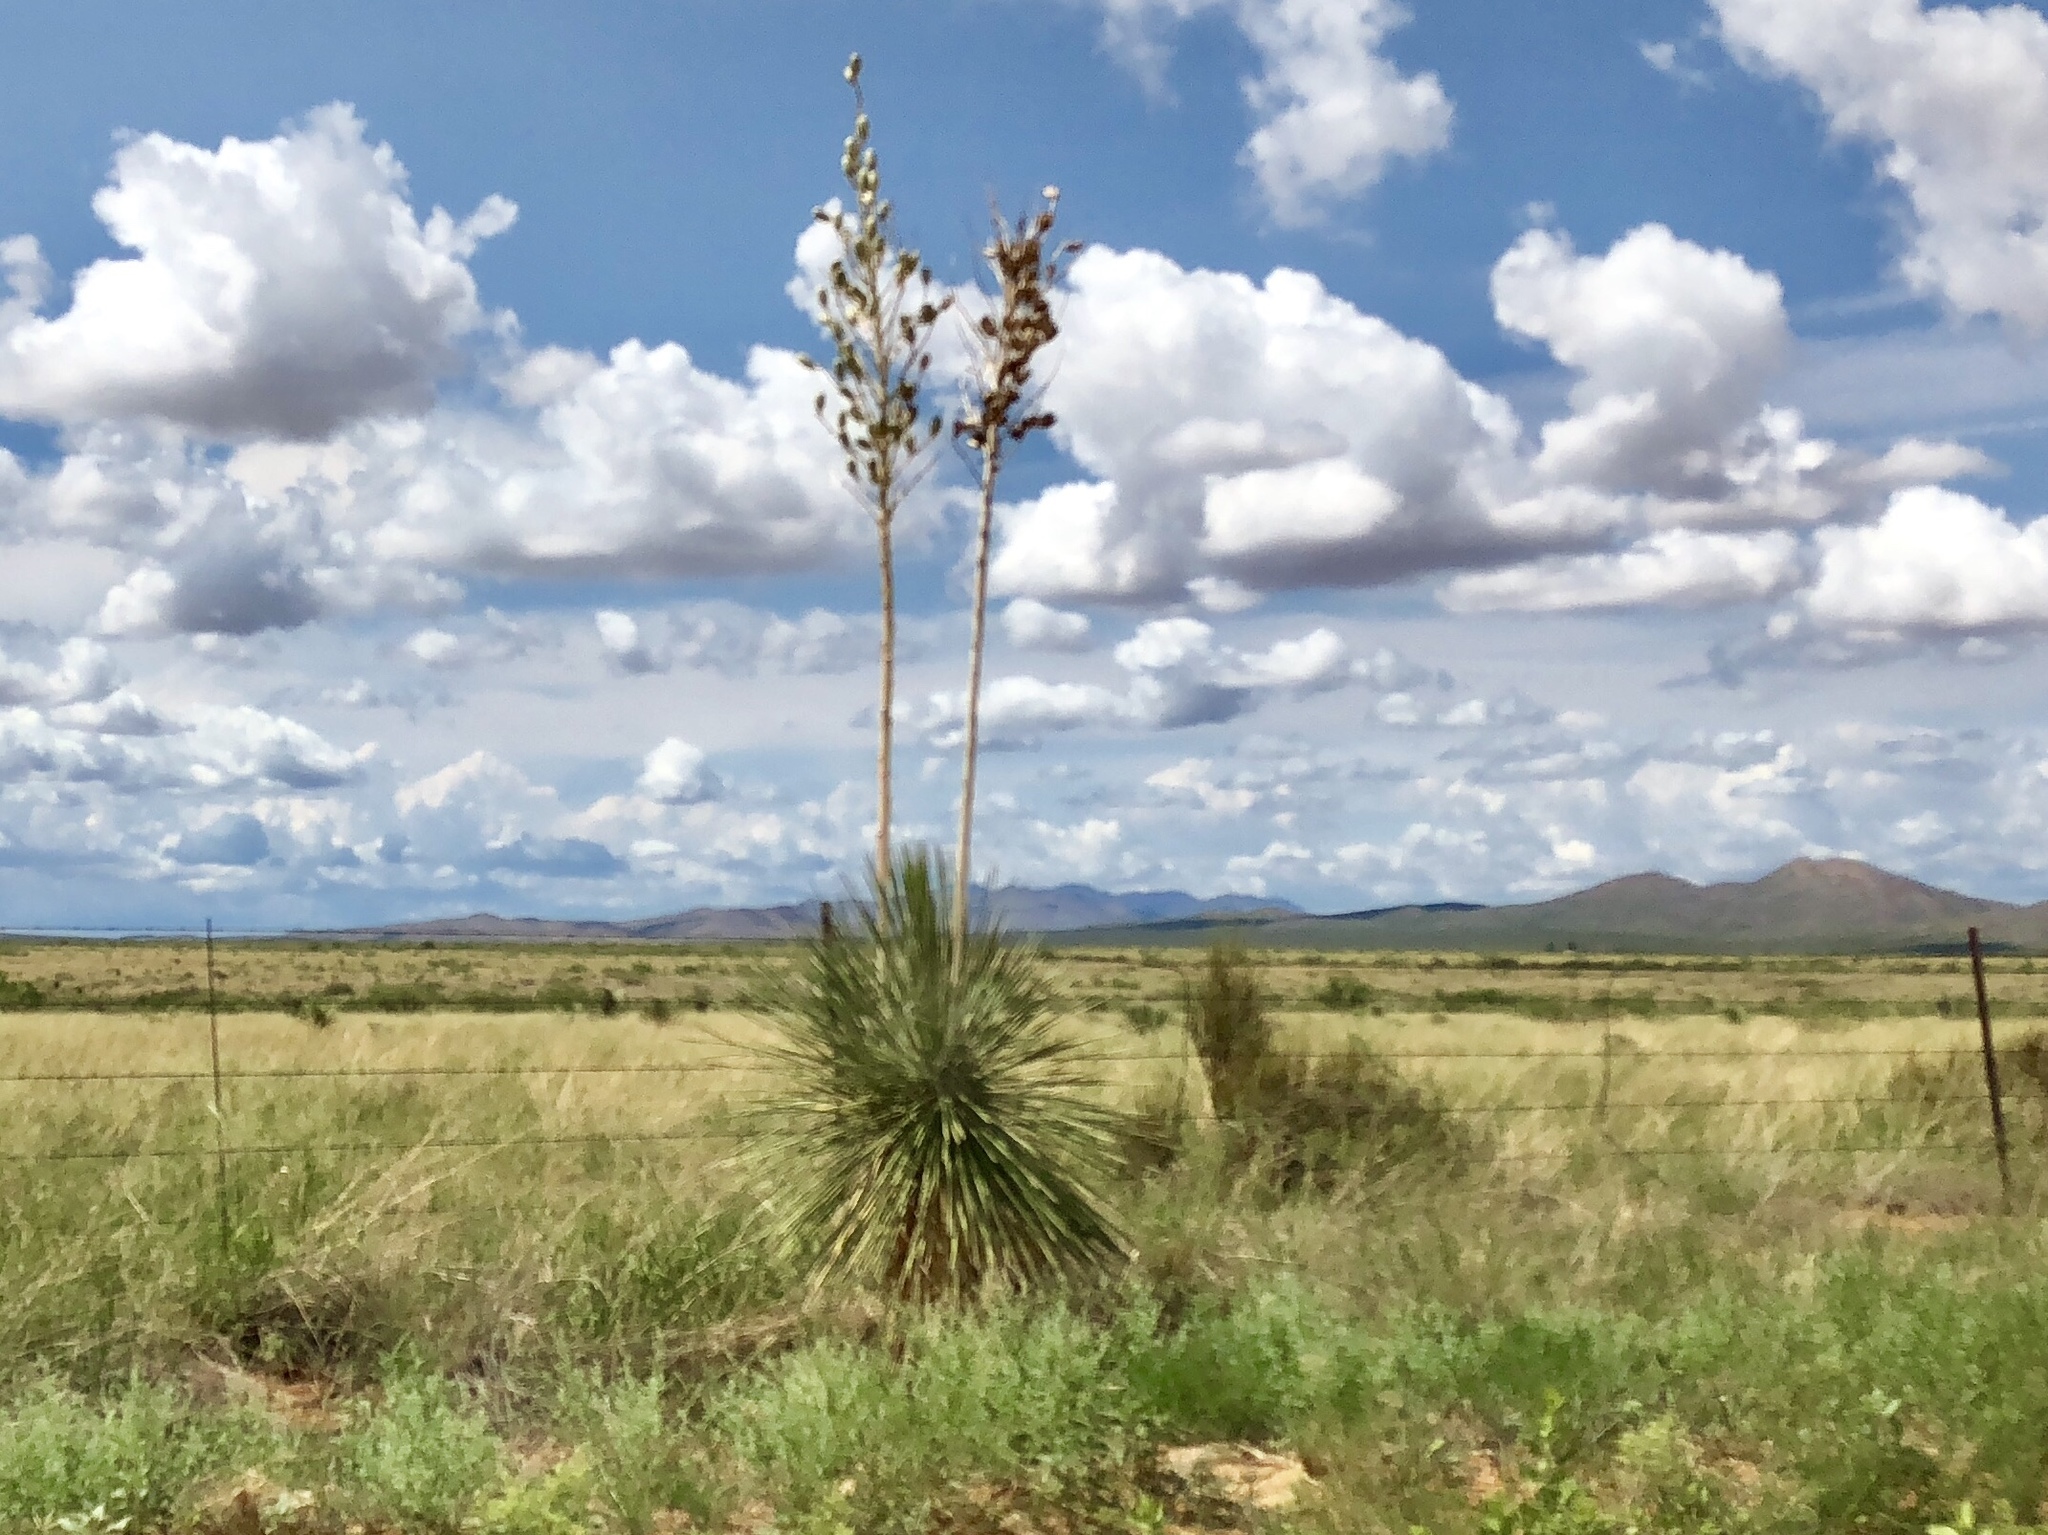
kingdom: Plantae
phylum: Tracheophyta
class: Liliopsida
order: Asparagales
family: Asparagaceae
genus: Yucca
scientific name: Yucca elata
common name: Palmella
